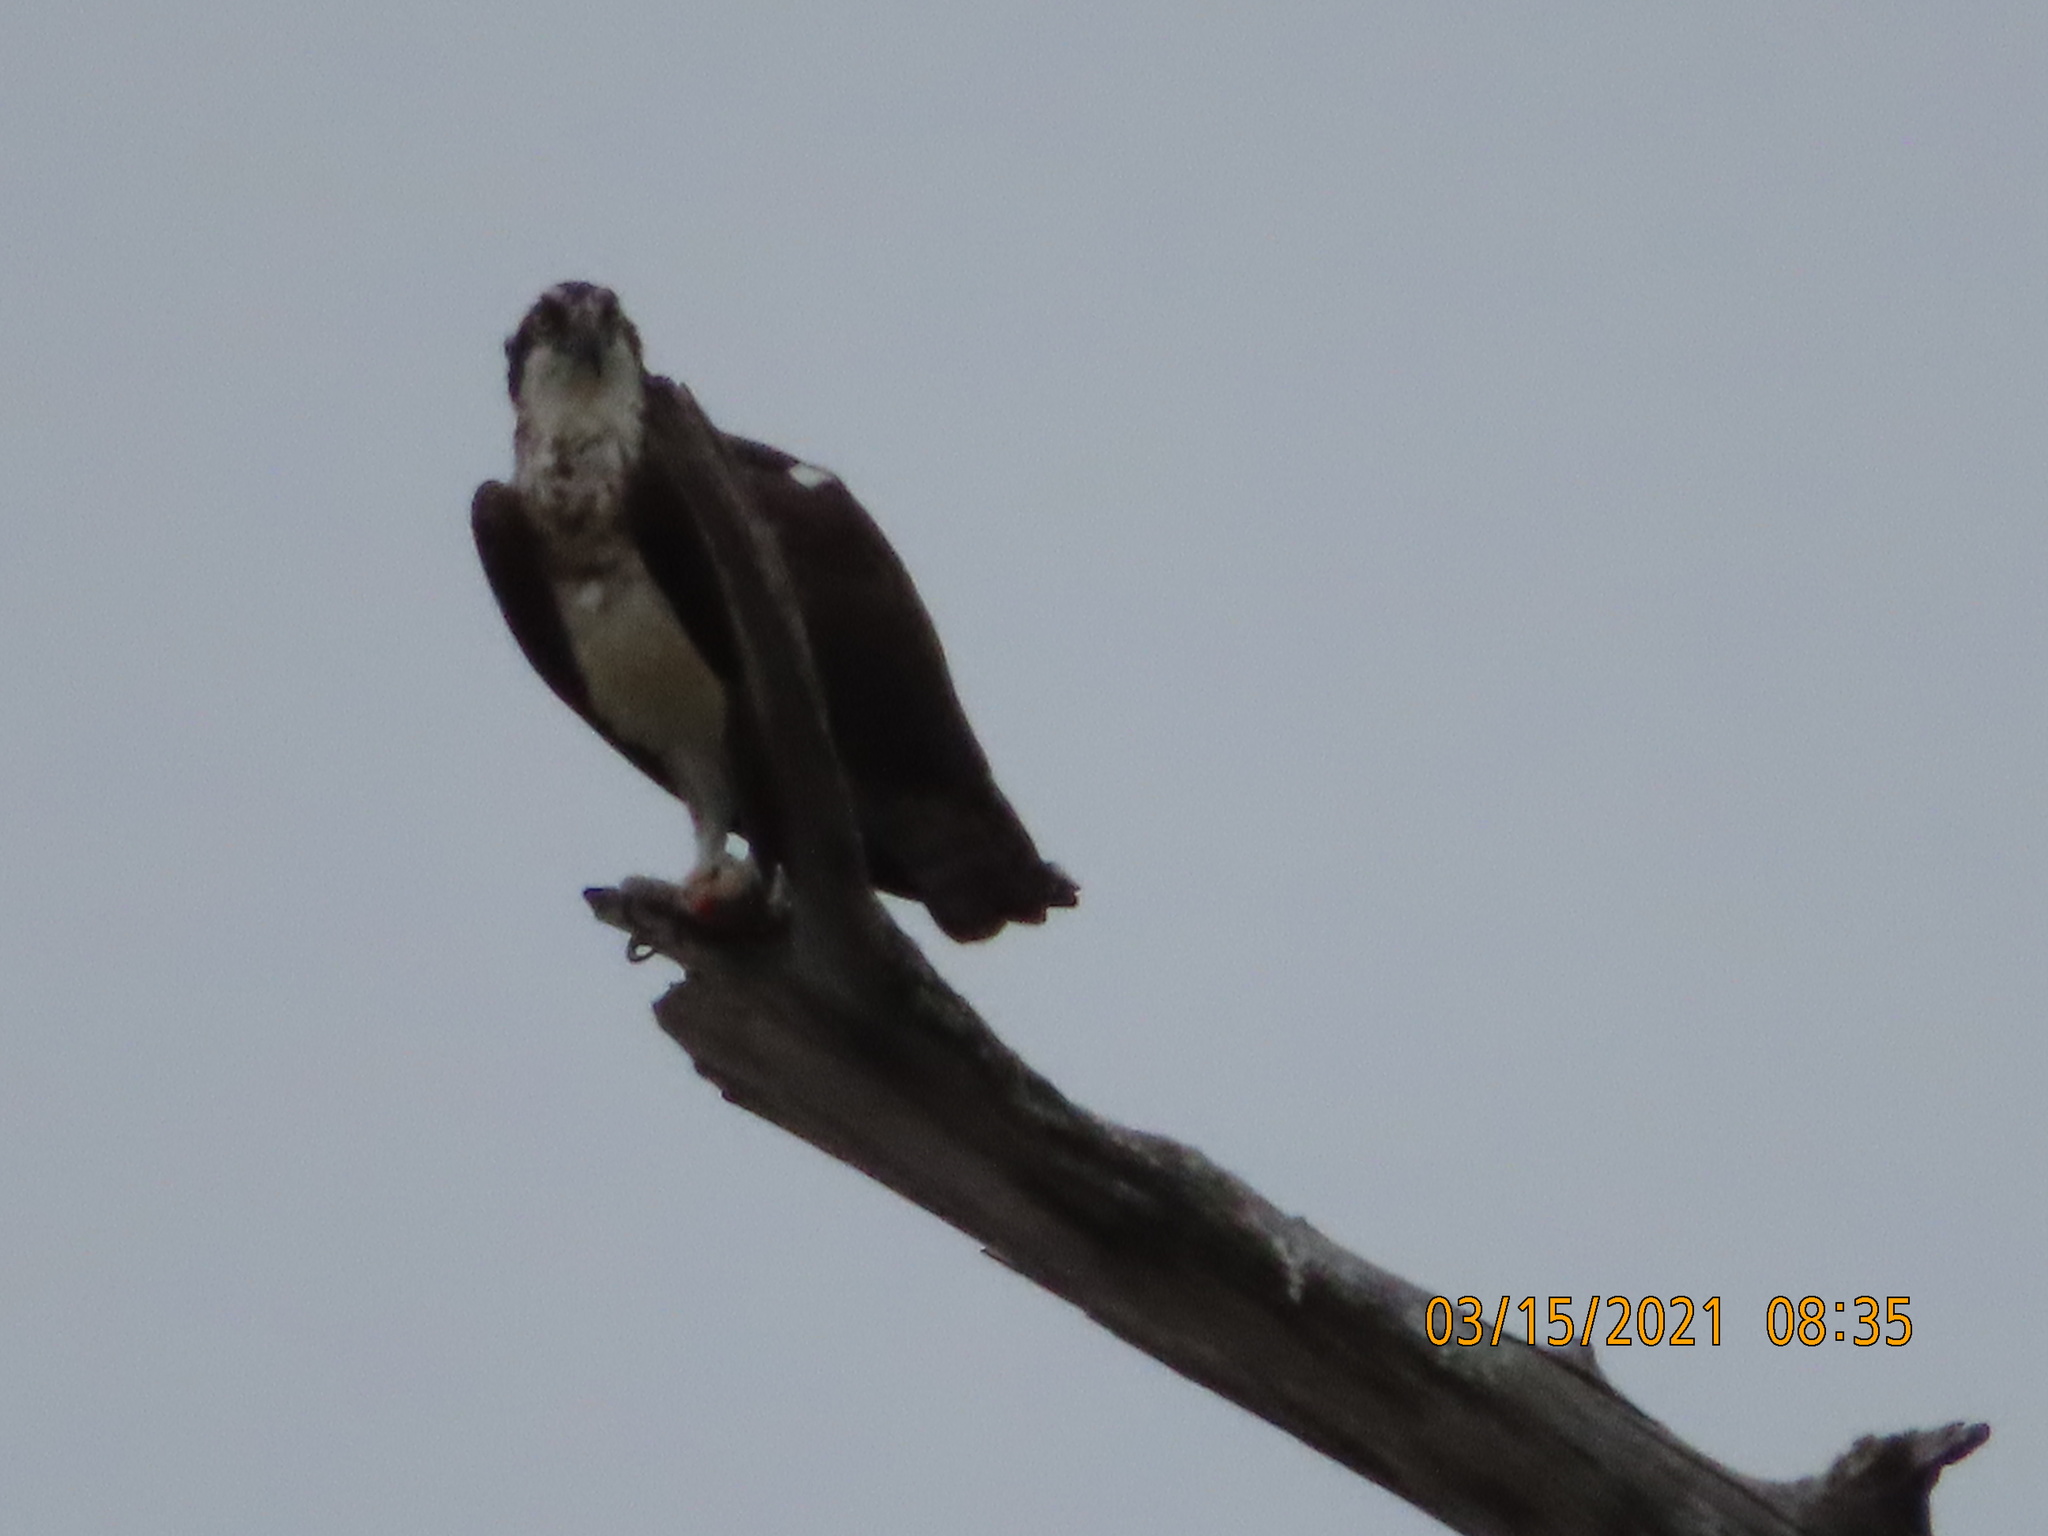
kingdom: Animalia
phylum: Chordata
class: Aves
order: Accipitriformes
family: Pandionidae
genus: Pandion
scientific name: Pandion haliaetus
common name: Osprey
